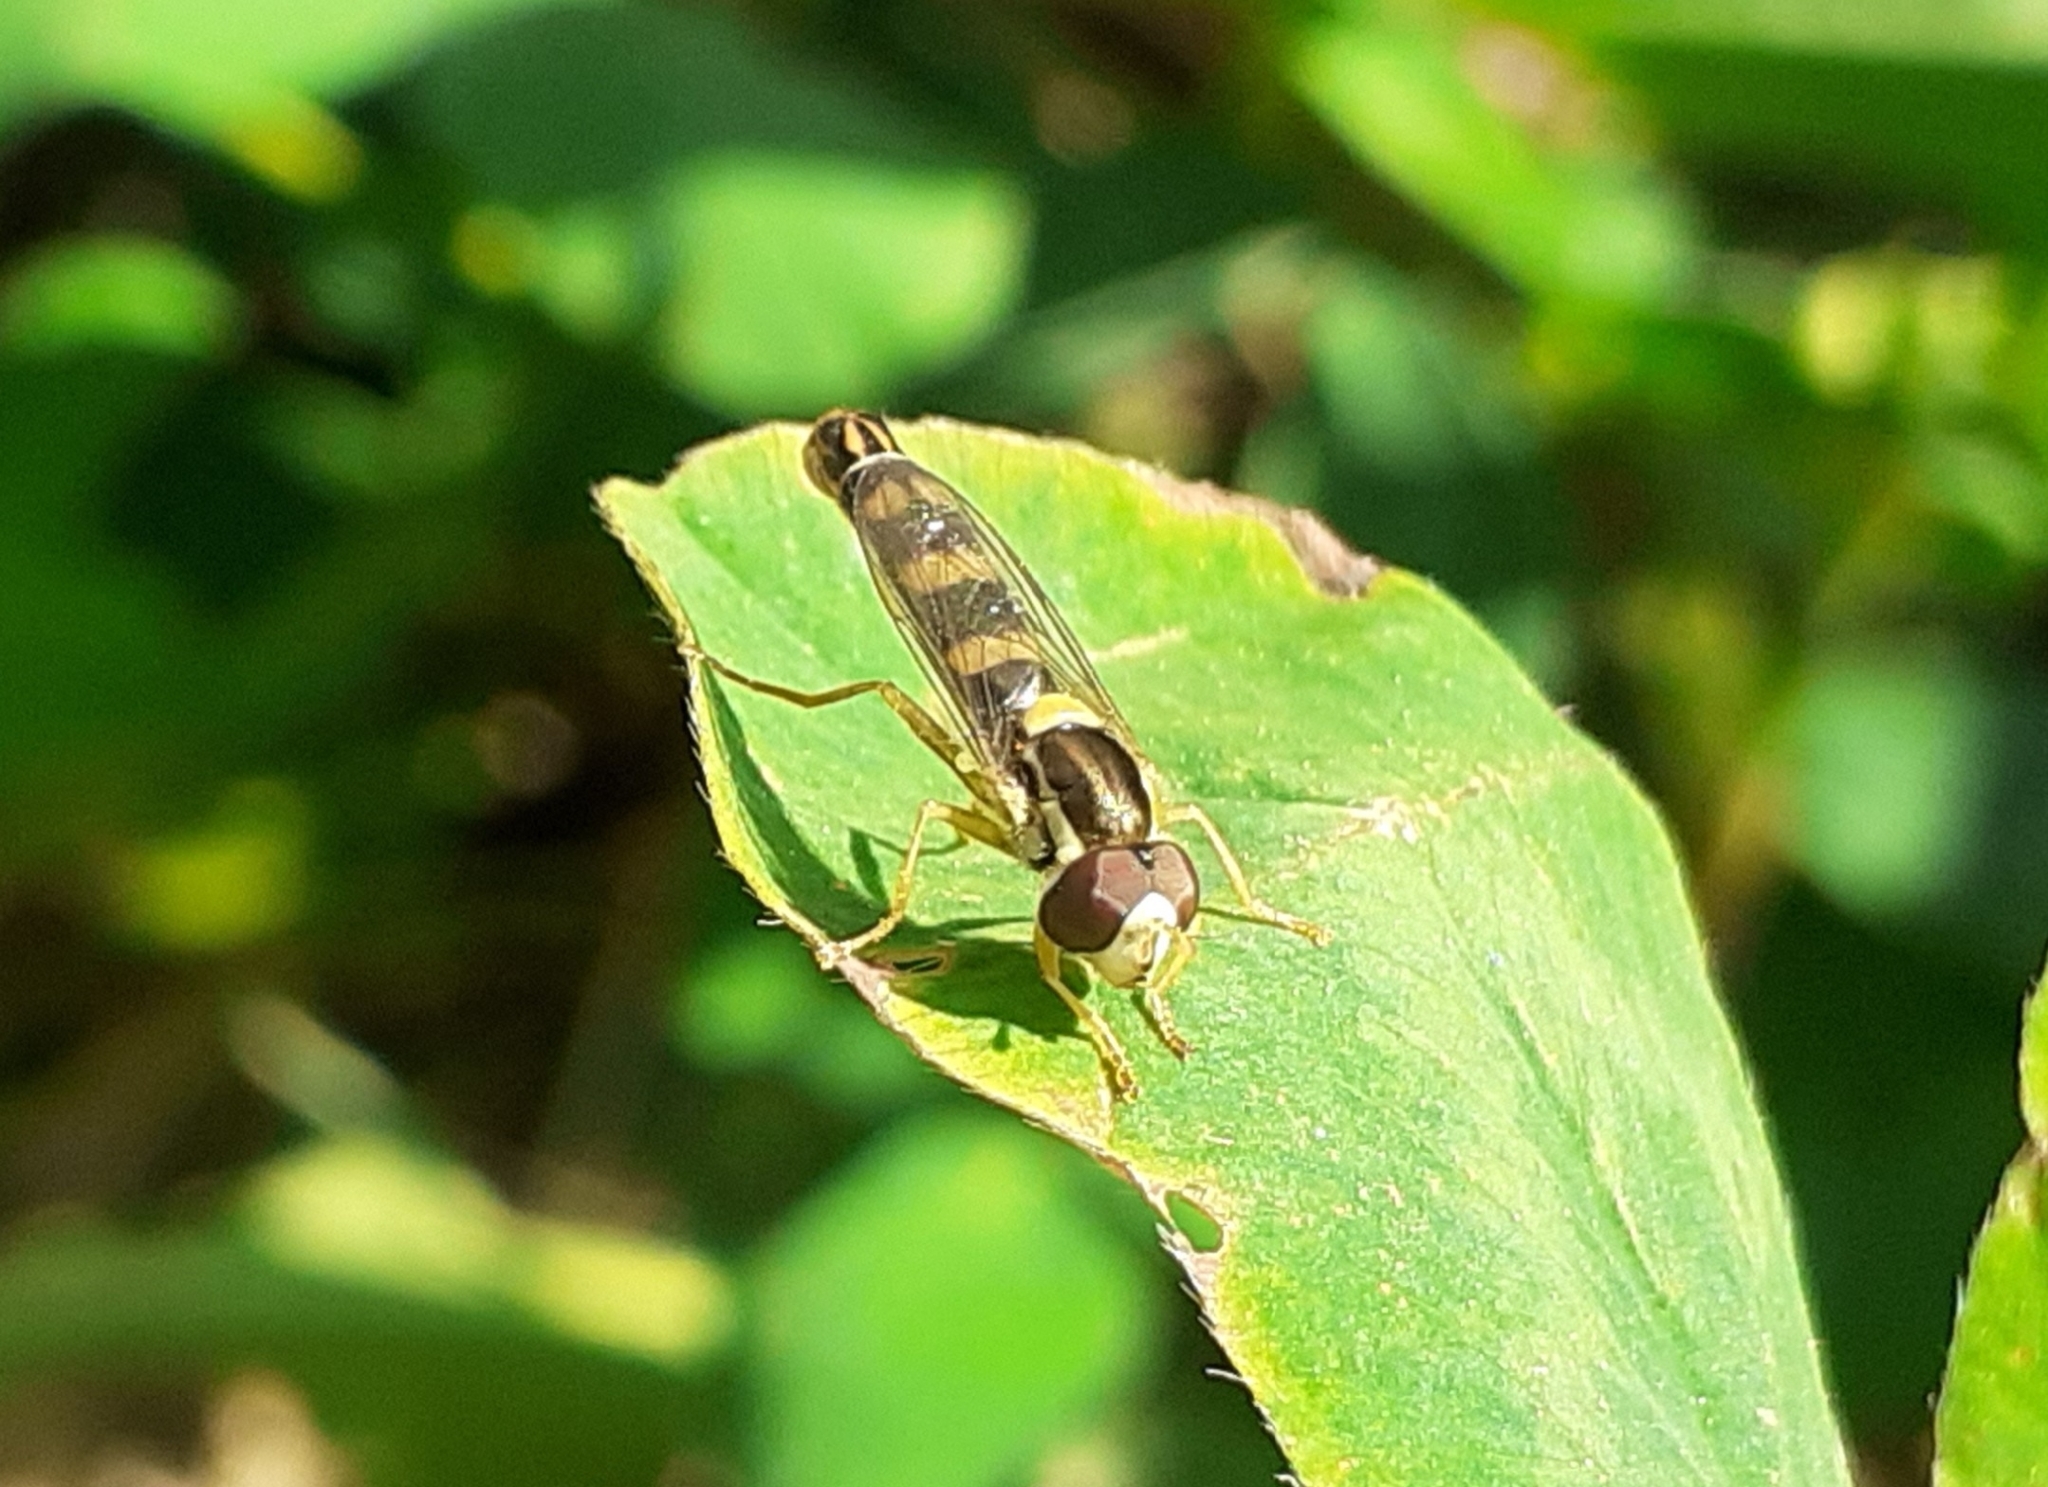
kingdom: Animalia
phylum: Arthropoda
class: Insecta
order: Diptera
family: Syrphidae
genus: Sphaerophoria
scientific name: Sphaerophoria scripta
